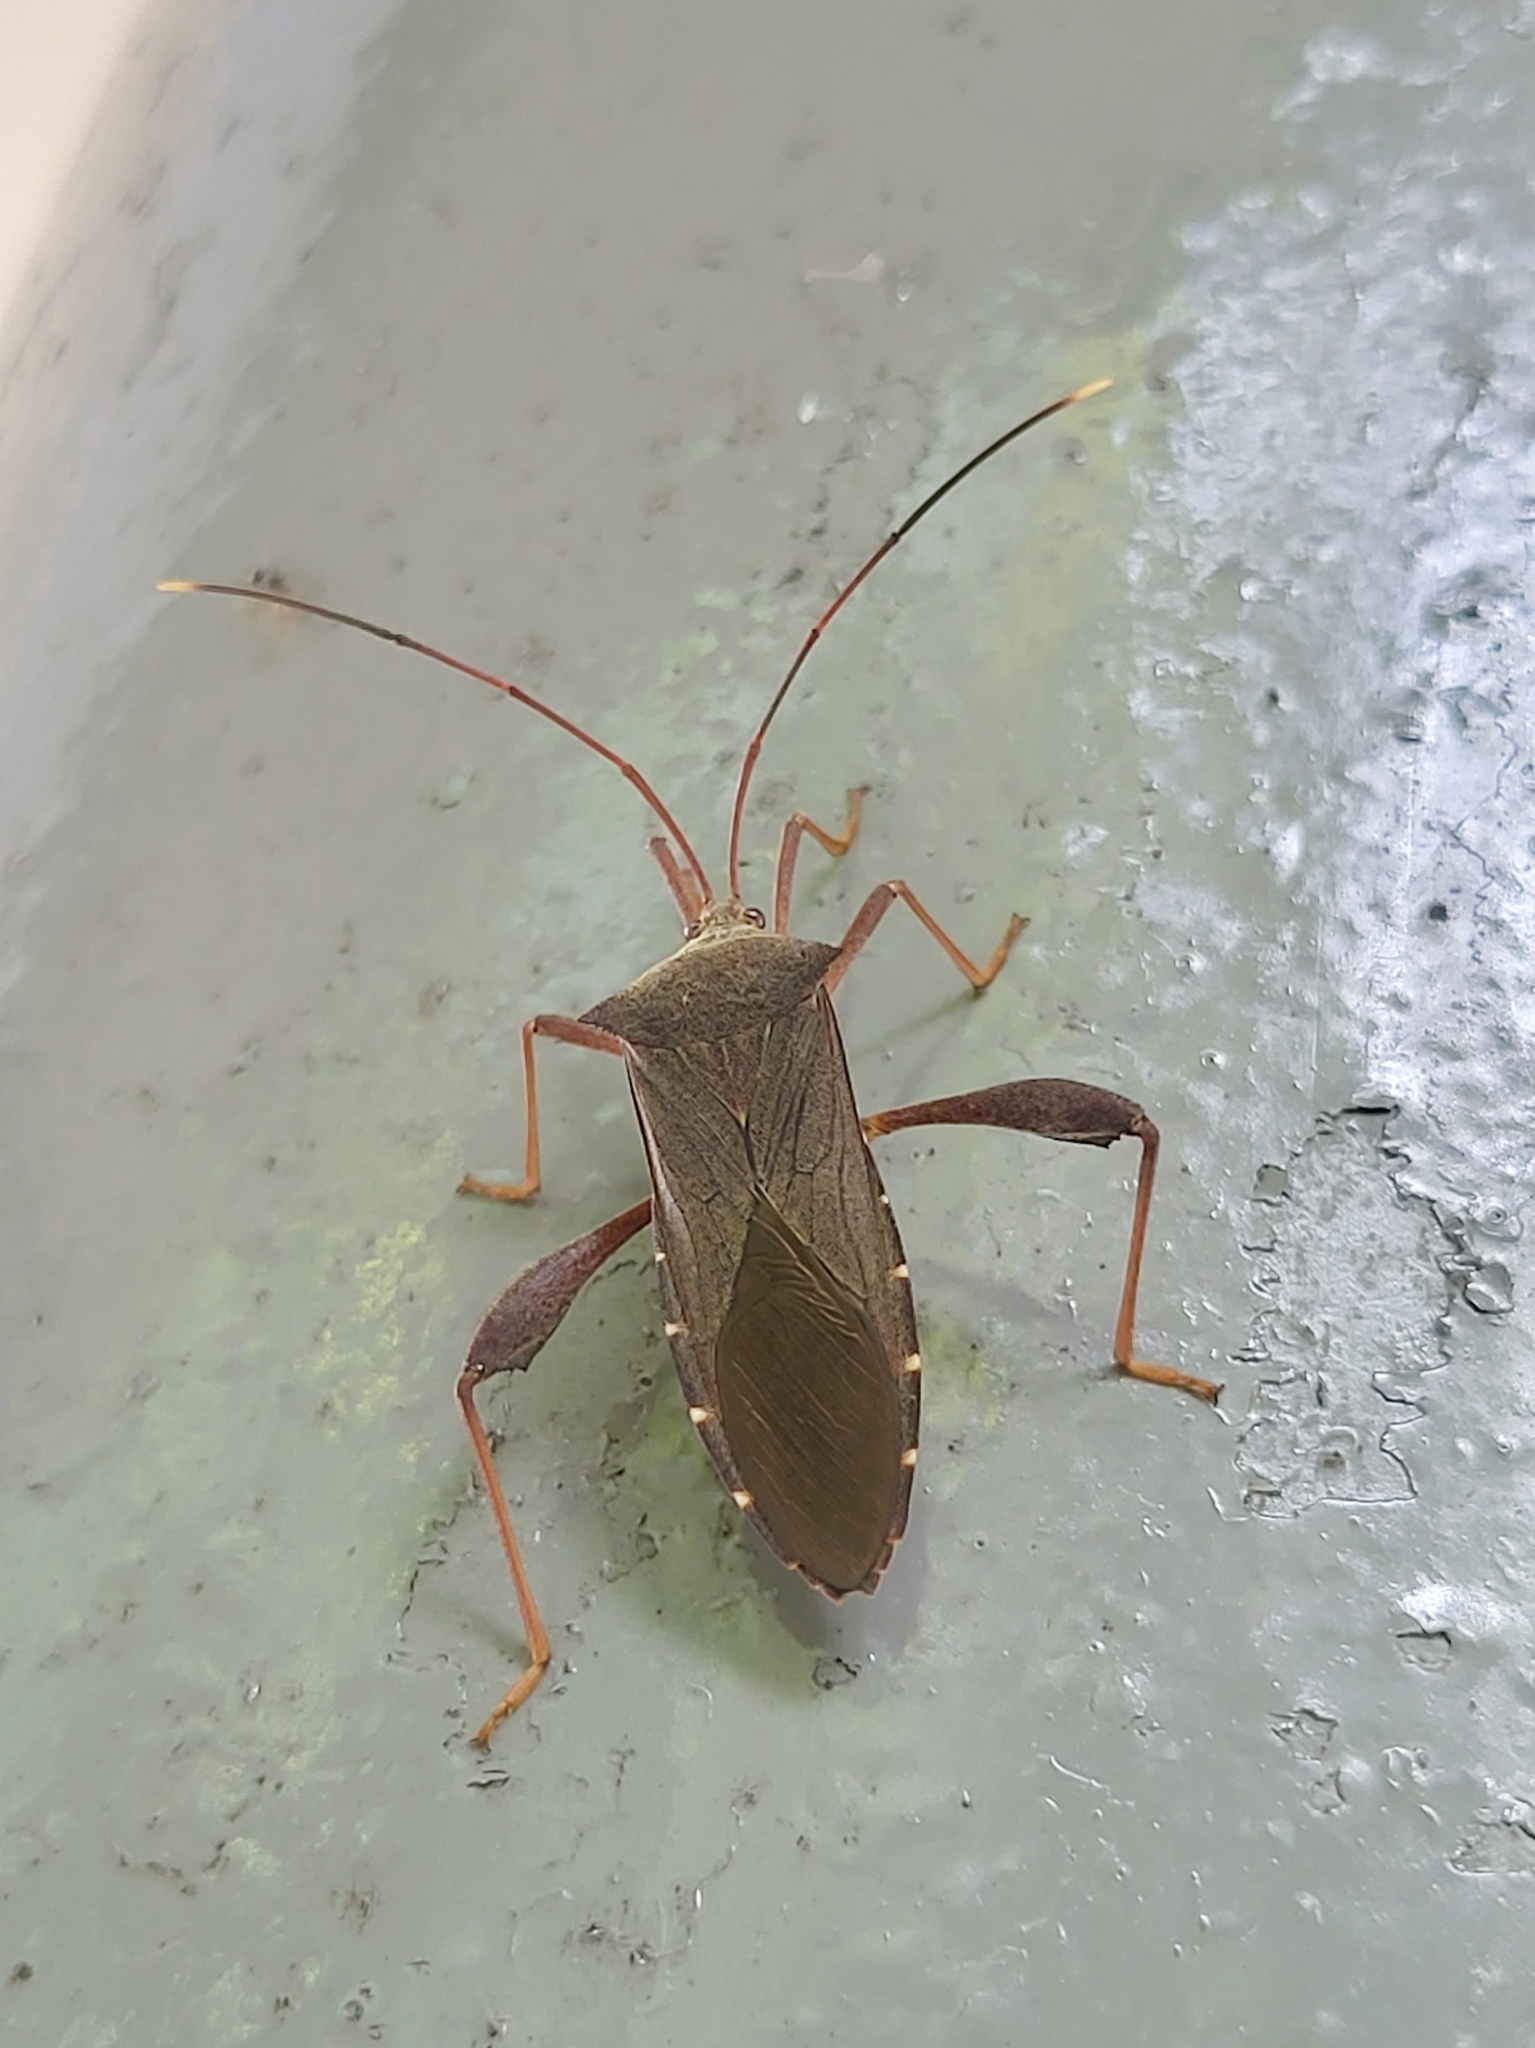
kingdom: Animalia
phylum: Arthropoda
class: Insecta
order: Hemiptera
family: Coreidae
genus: Mictis
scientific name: Mictis longicornis
